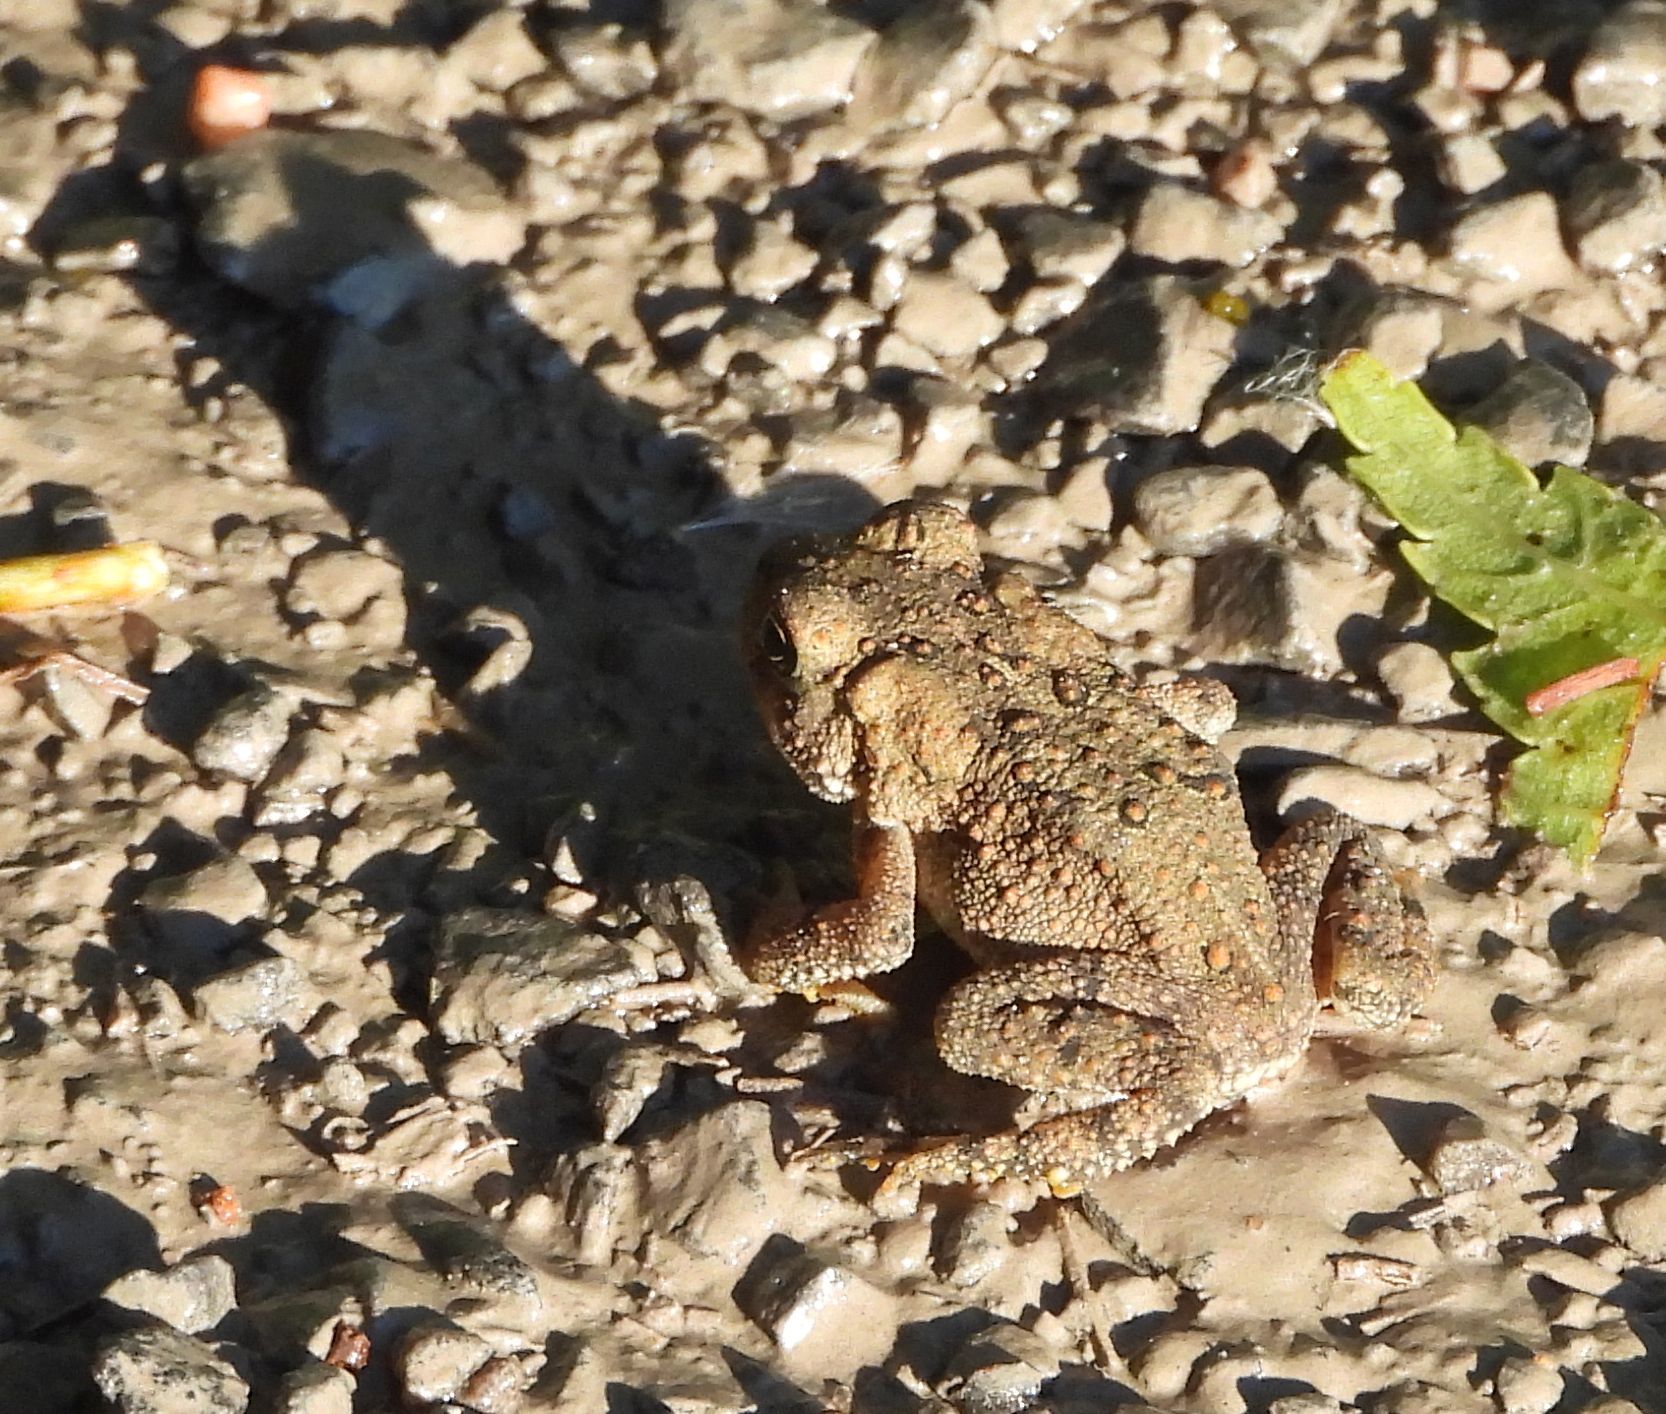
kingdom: Animalia
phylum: Chordata
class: Amphibia
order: Anura
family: Bufonidae
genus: Anaxyrus
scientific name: Anaxyrus americanus
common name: American toad
